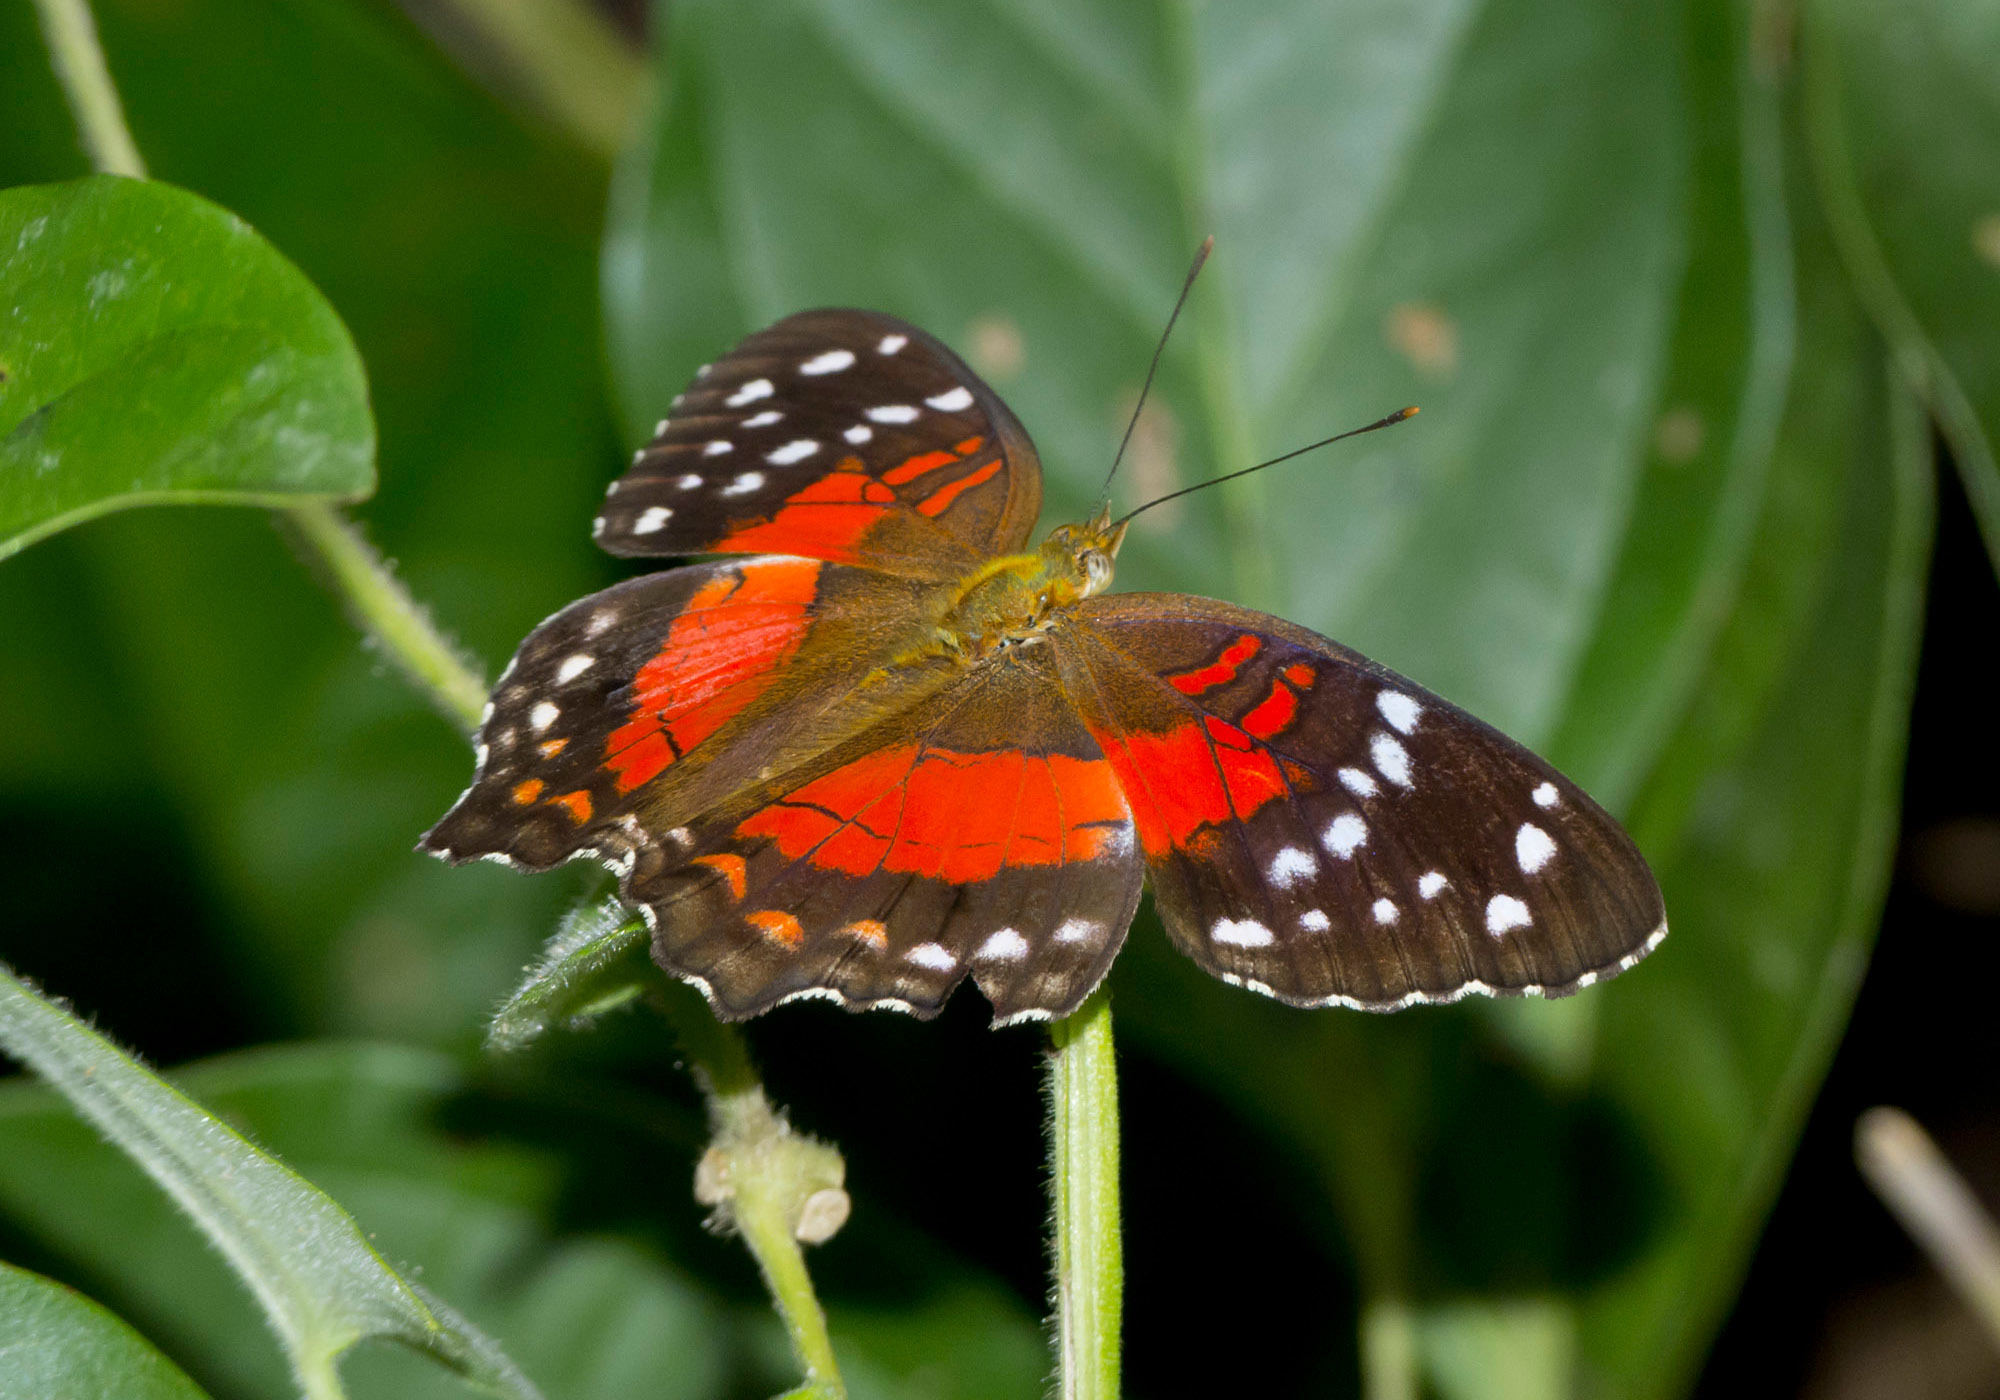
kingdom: Animalia
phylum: Arthropoda
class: Insecta
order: Lepidoptera
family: Nymphalidae
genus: Anartia
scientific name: Anartia amathea
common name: Red peacock
